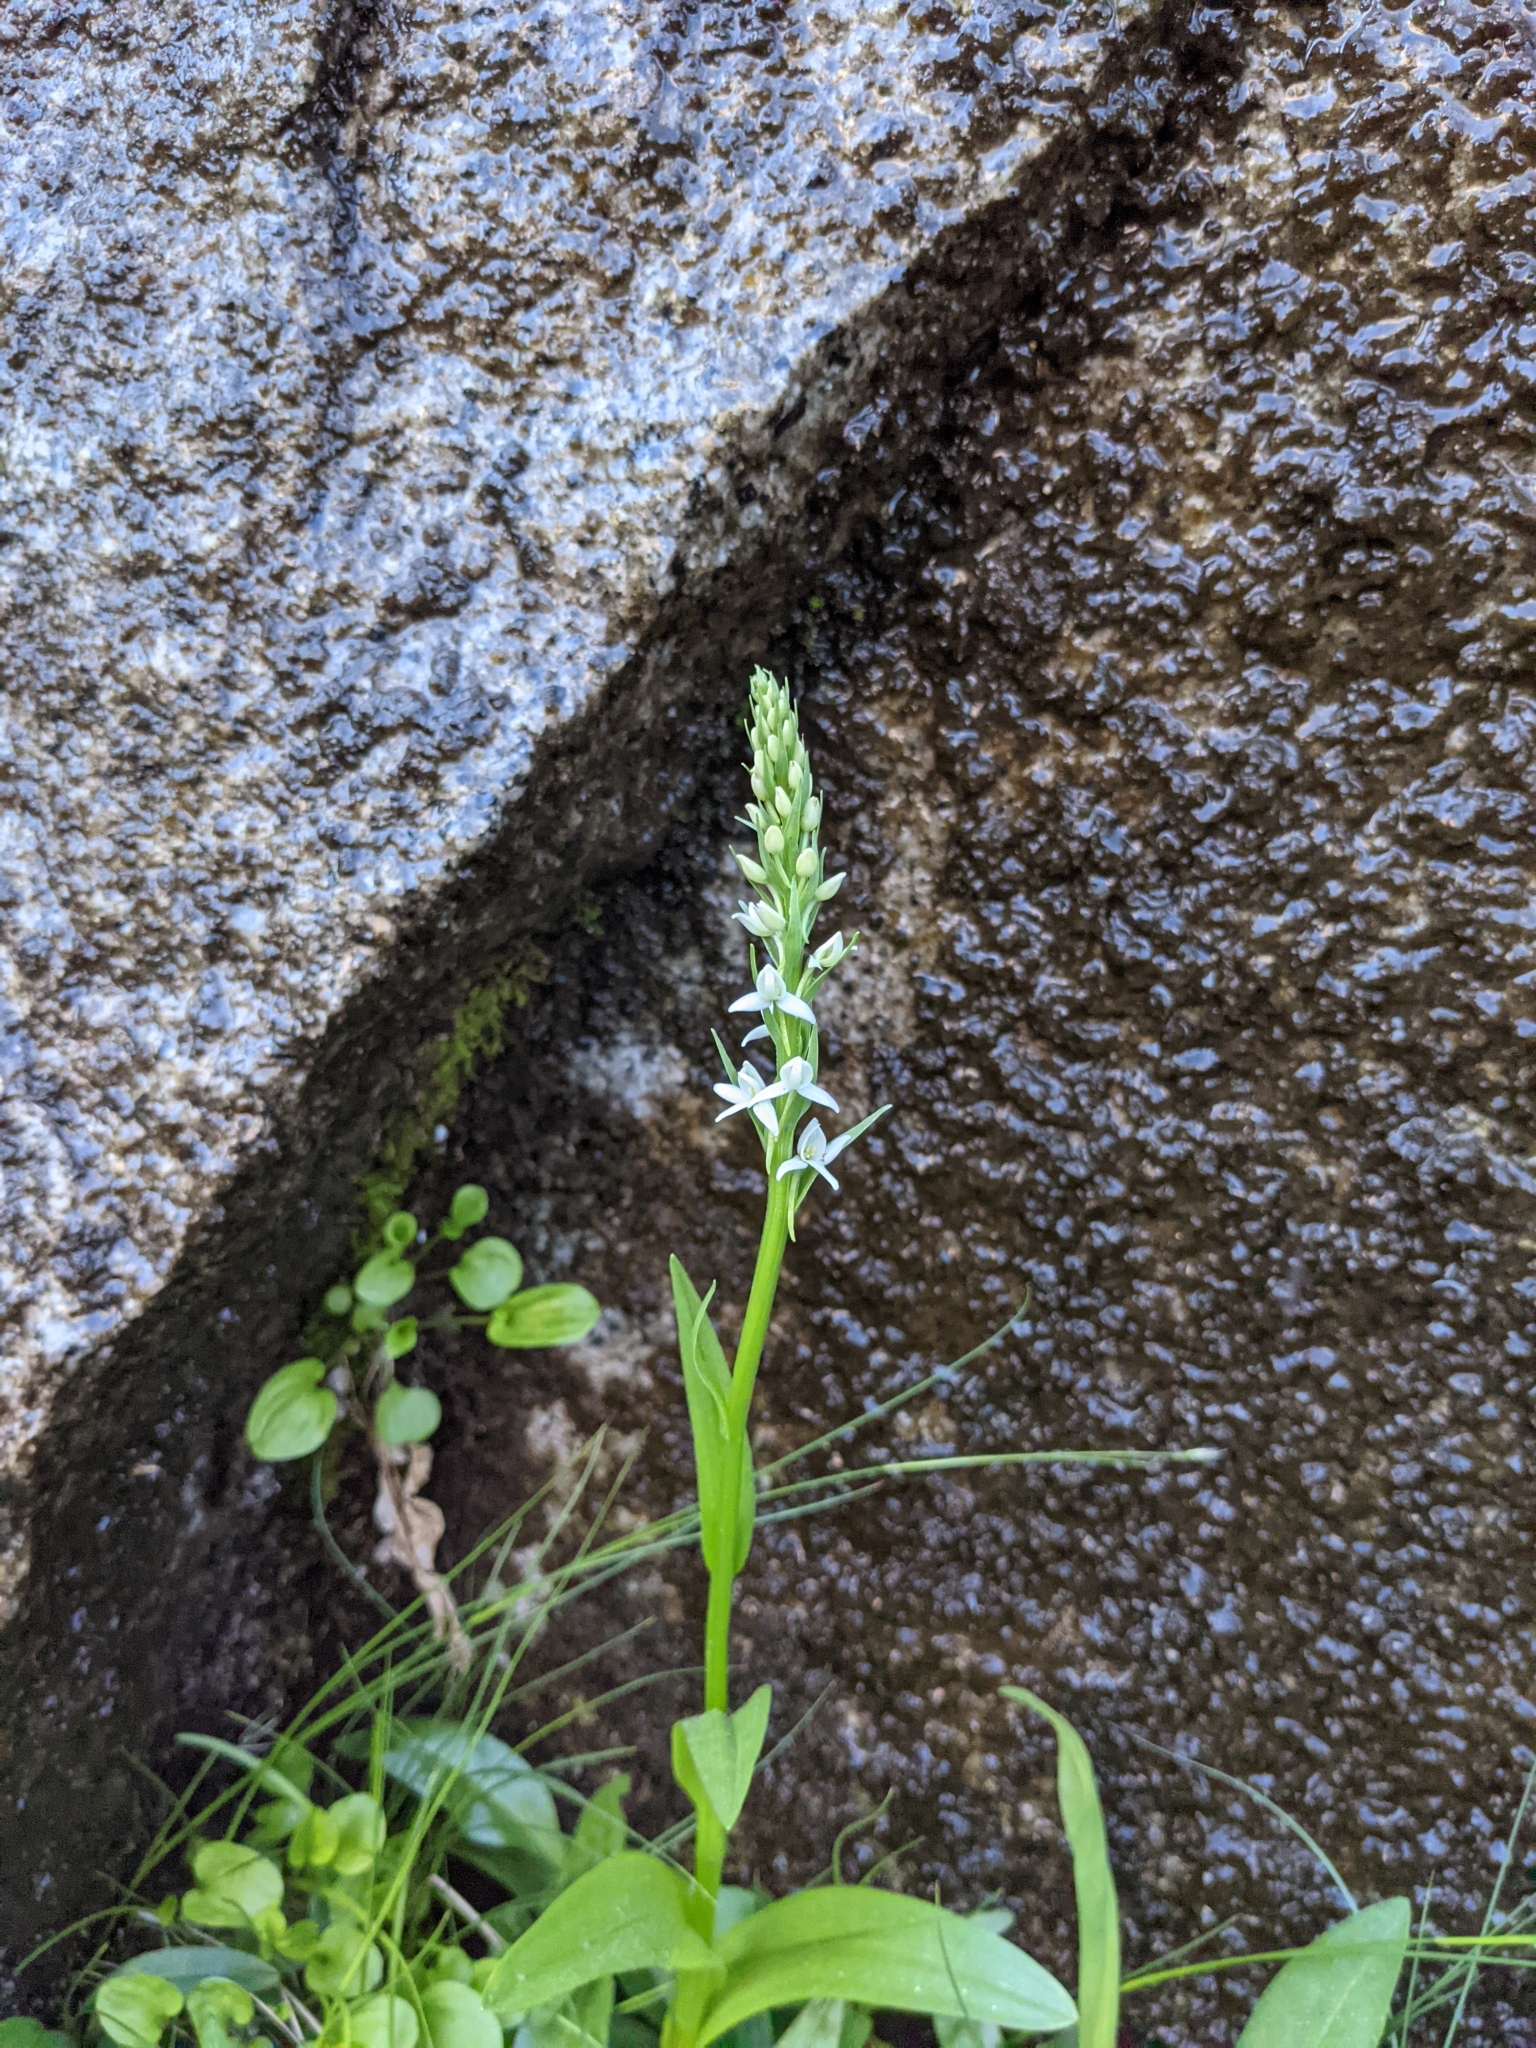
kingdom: Plantae
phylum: Tracheophyta
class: Liliopsida
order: Asparagales
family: Orchidaceae
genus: Platanthera
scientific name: Platanthera dilatata
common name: Bog candles
